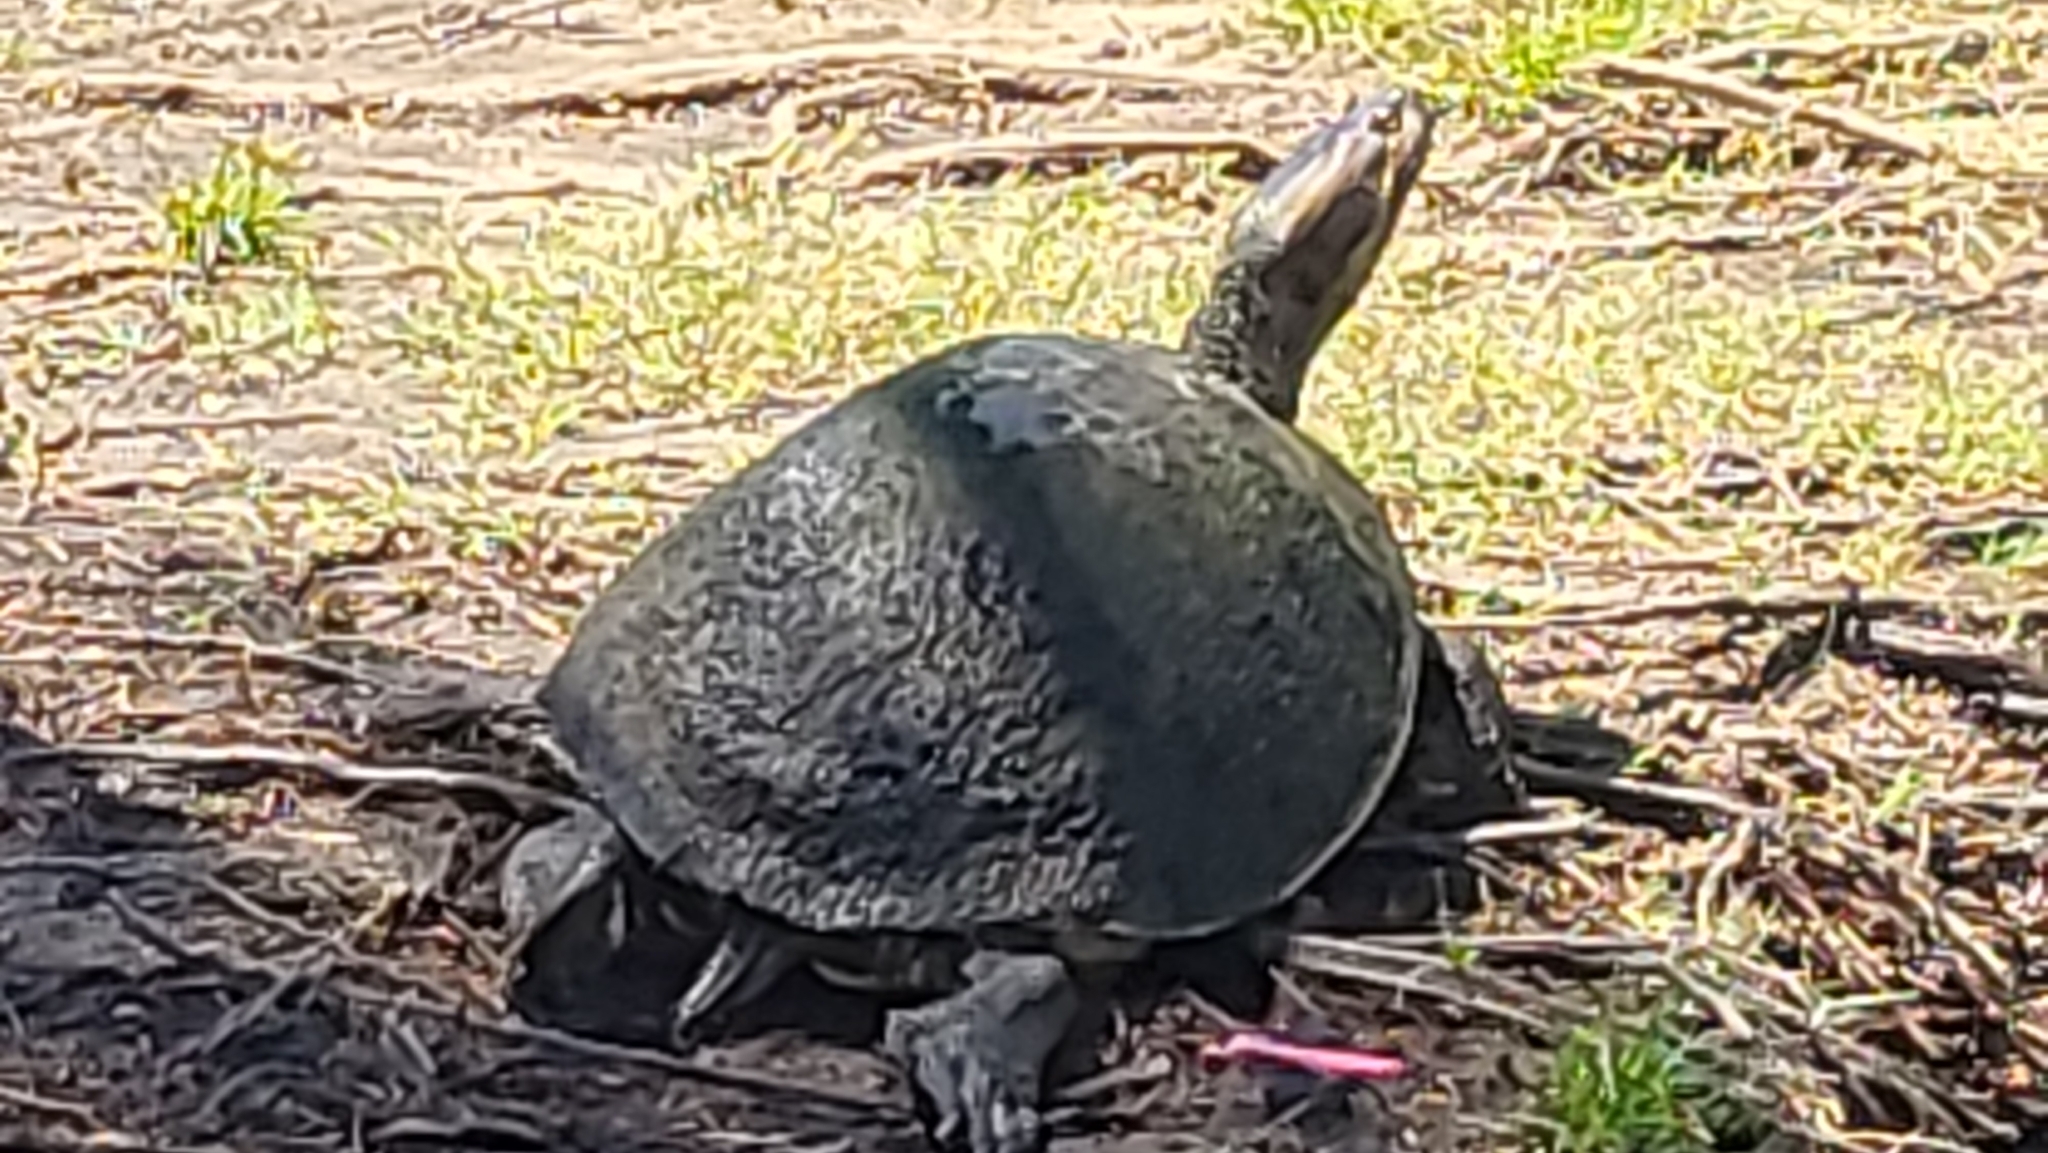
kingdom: Animalia
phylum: Chordata
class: Testudines
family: Emydidae
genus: Trachemys
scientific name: Trachemys grayi
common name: Gray's slider
